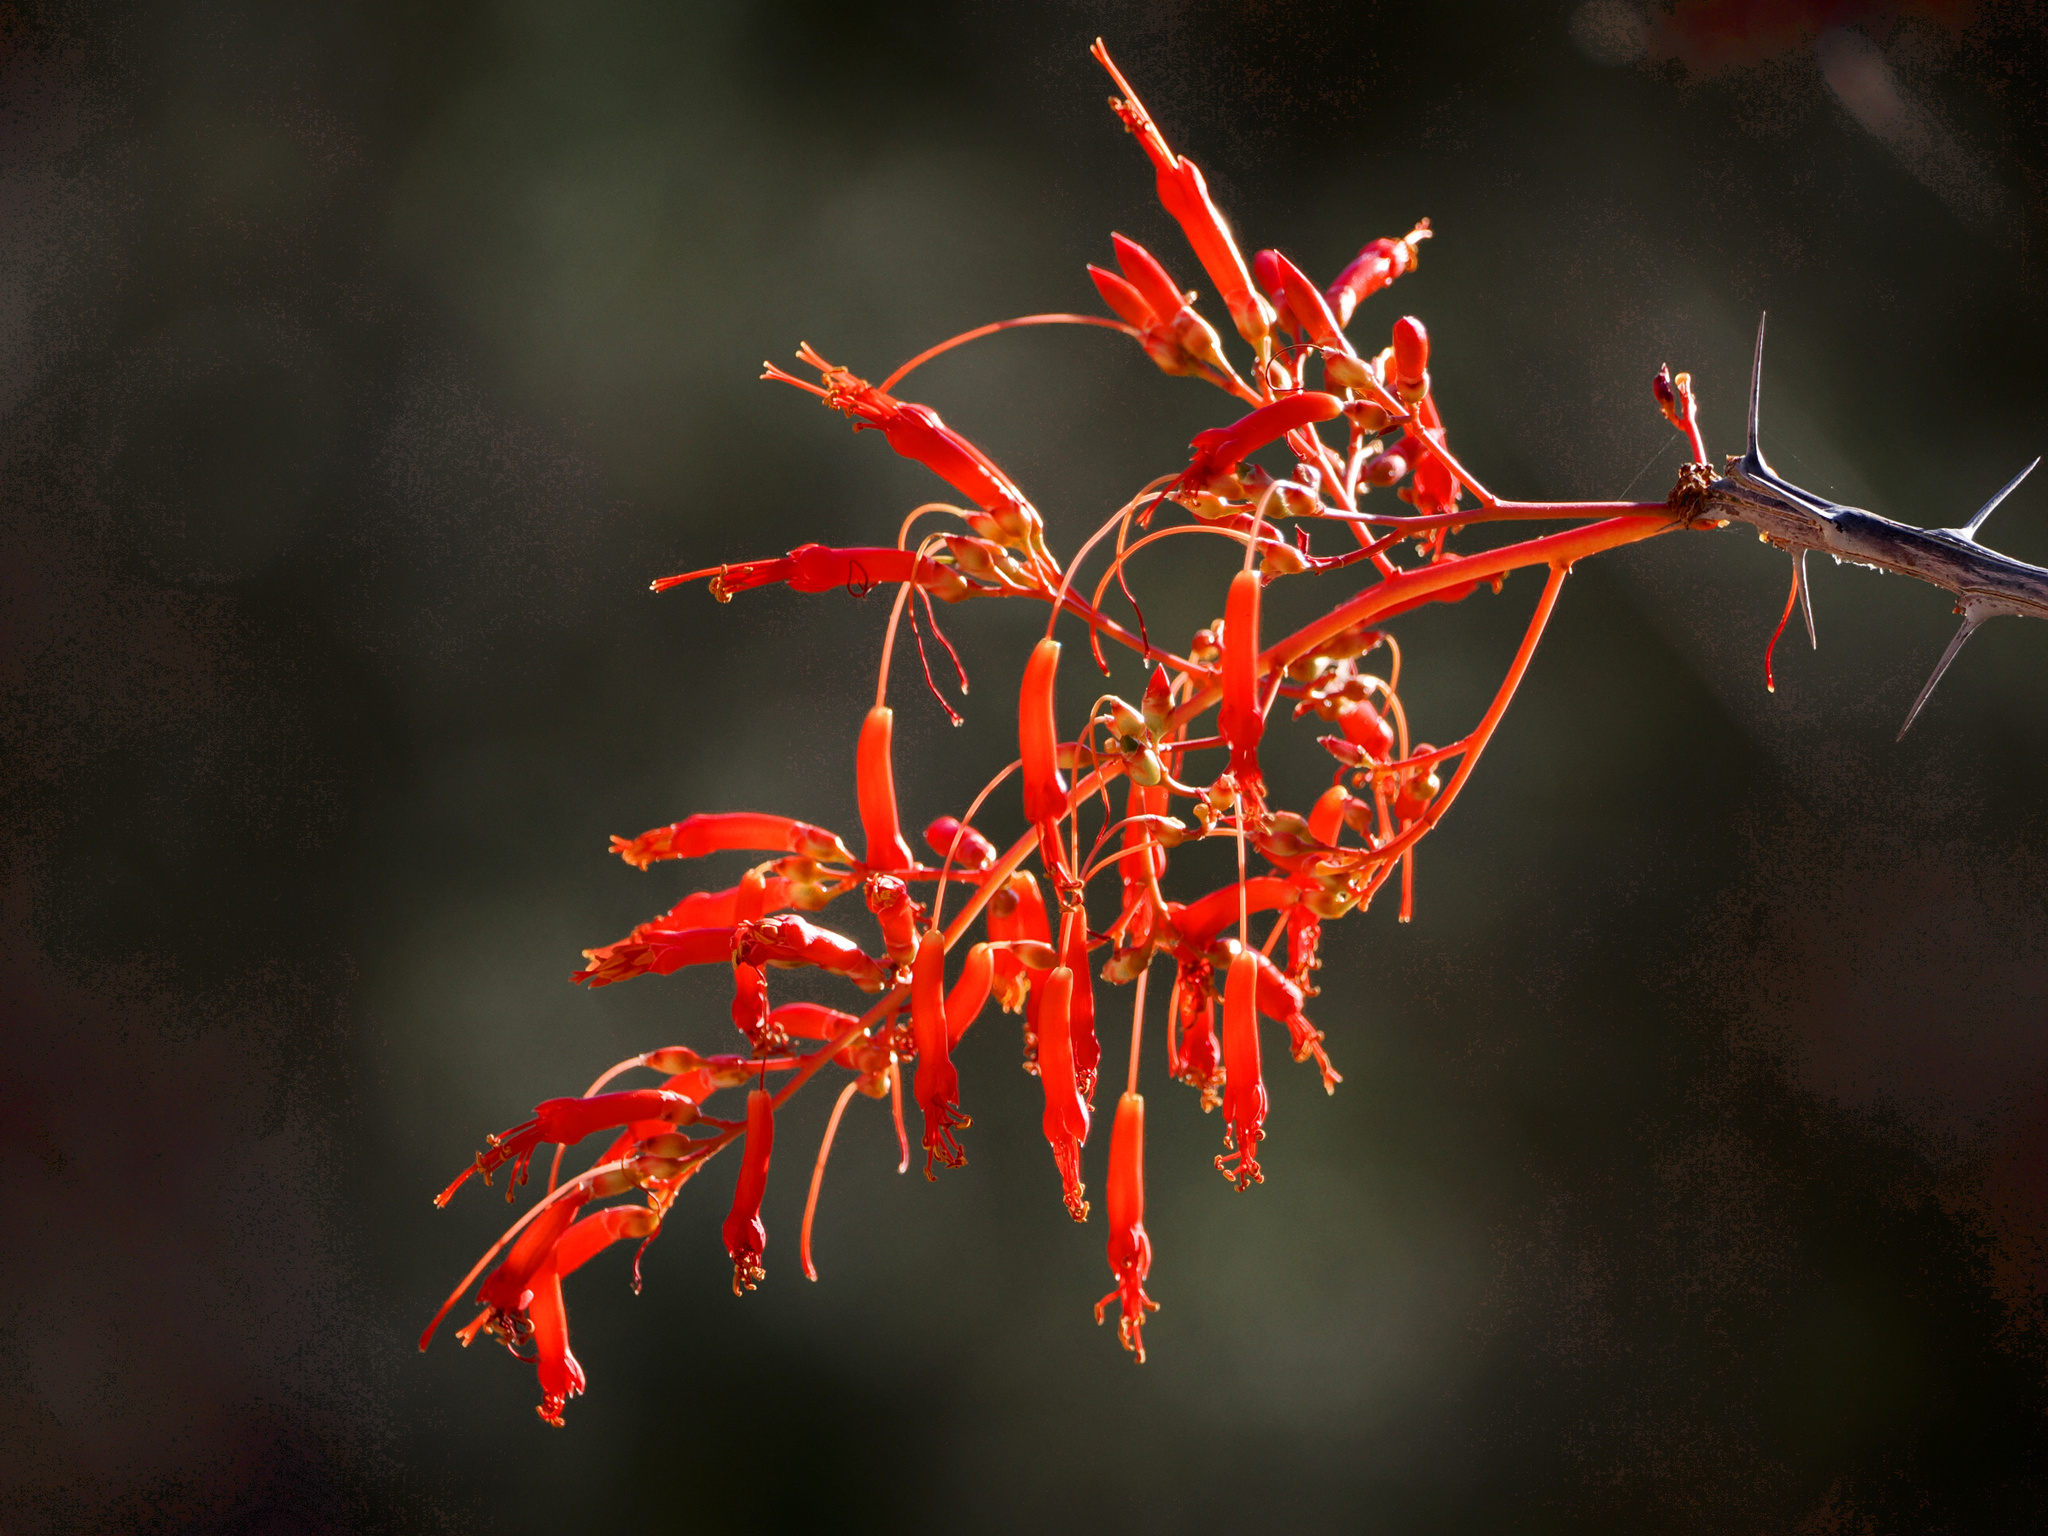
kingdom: Plantae
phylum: Tracheophyta
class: Magnoliopsida
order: Ericales
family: Fouquieriaceae
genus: Fouquieria
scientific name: Fouquieria diguetii
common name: Adam's tree
